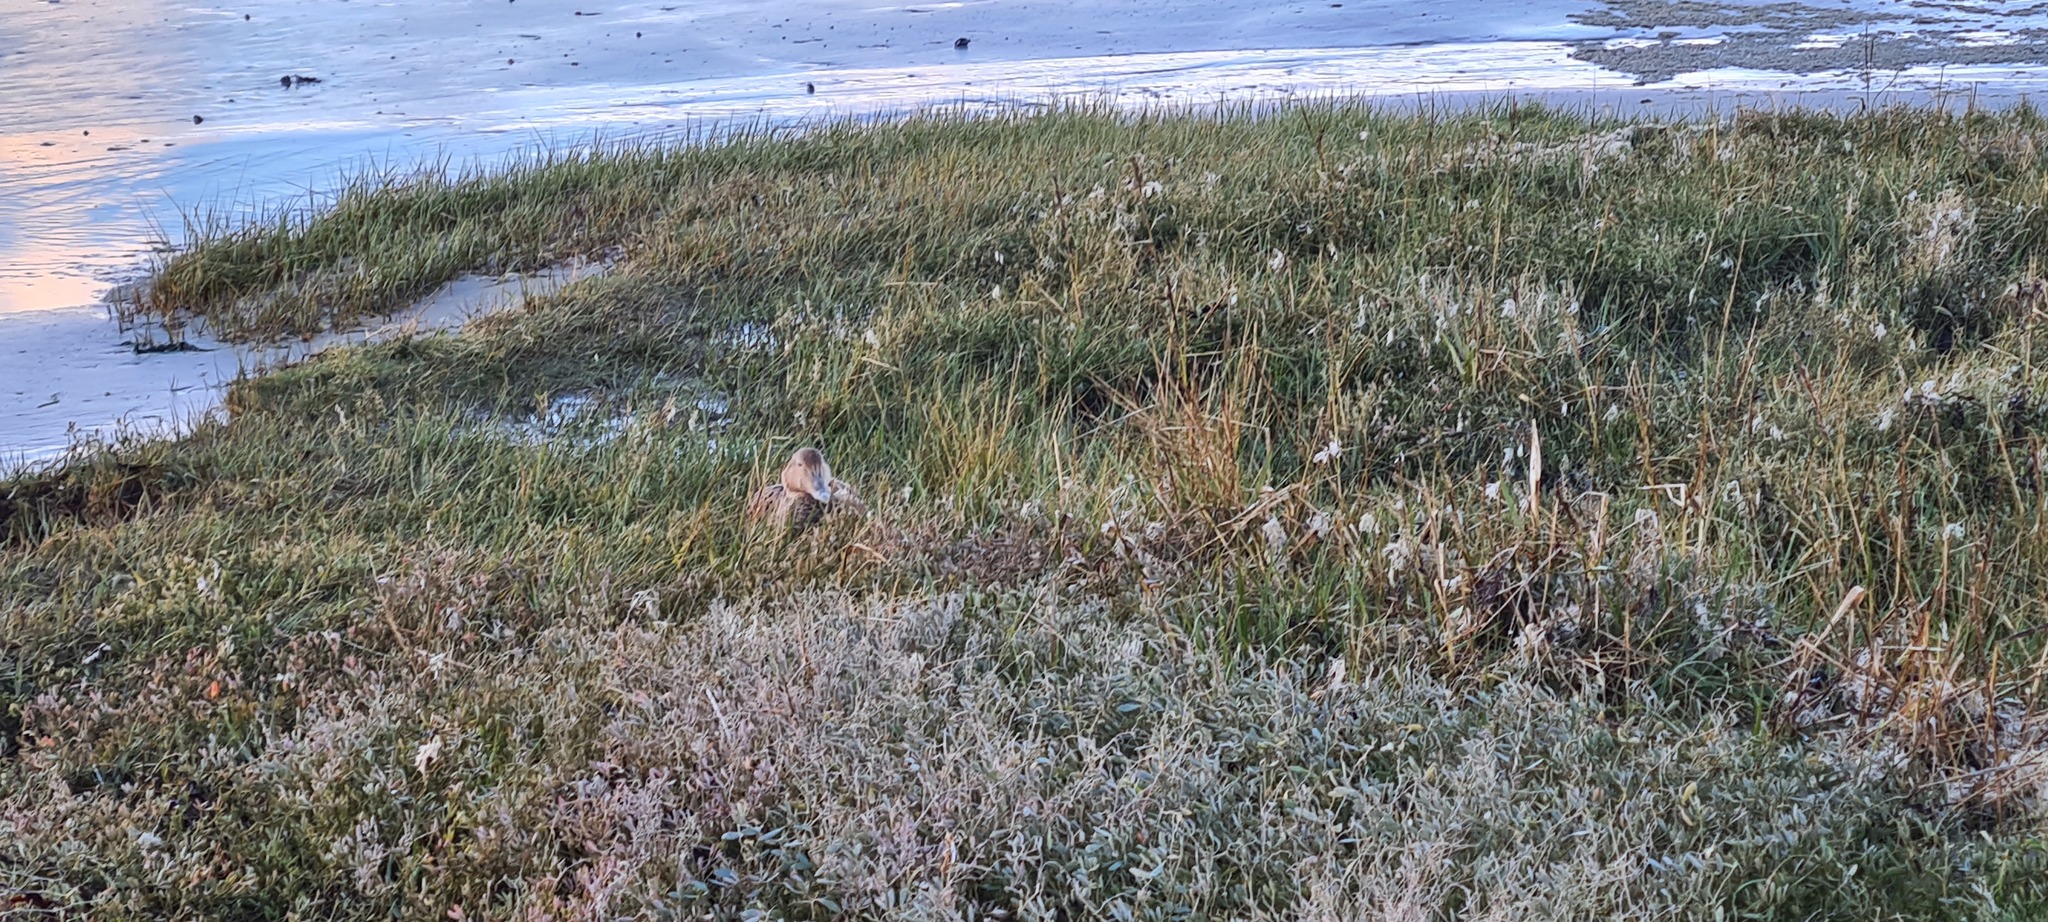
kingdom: Animalia
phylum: Chordata
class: Aves
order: Anseriformes
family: Anatidae
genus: Somateria
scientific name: Somateria mollissima
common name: Common eider
